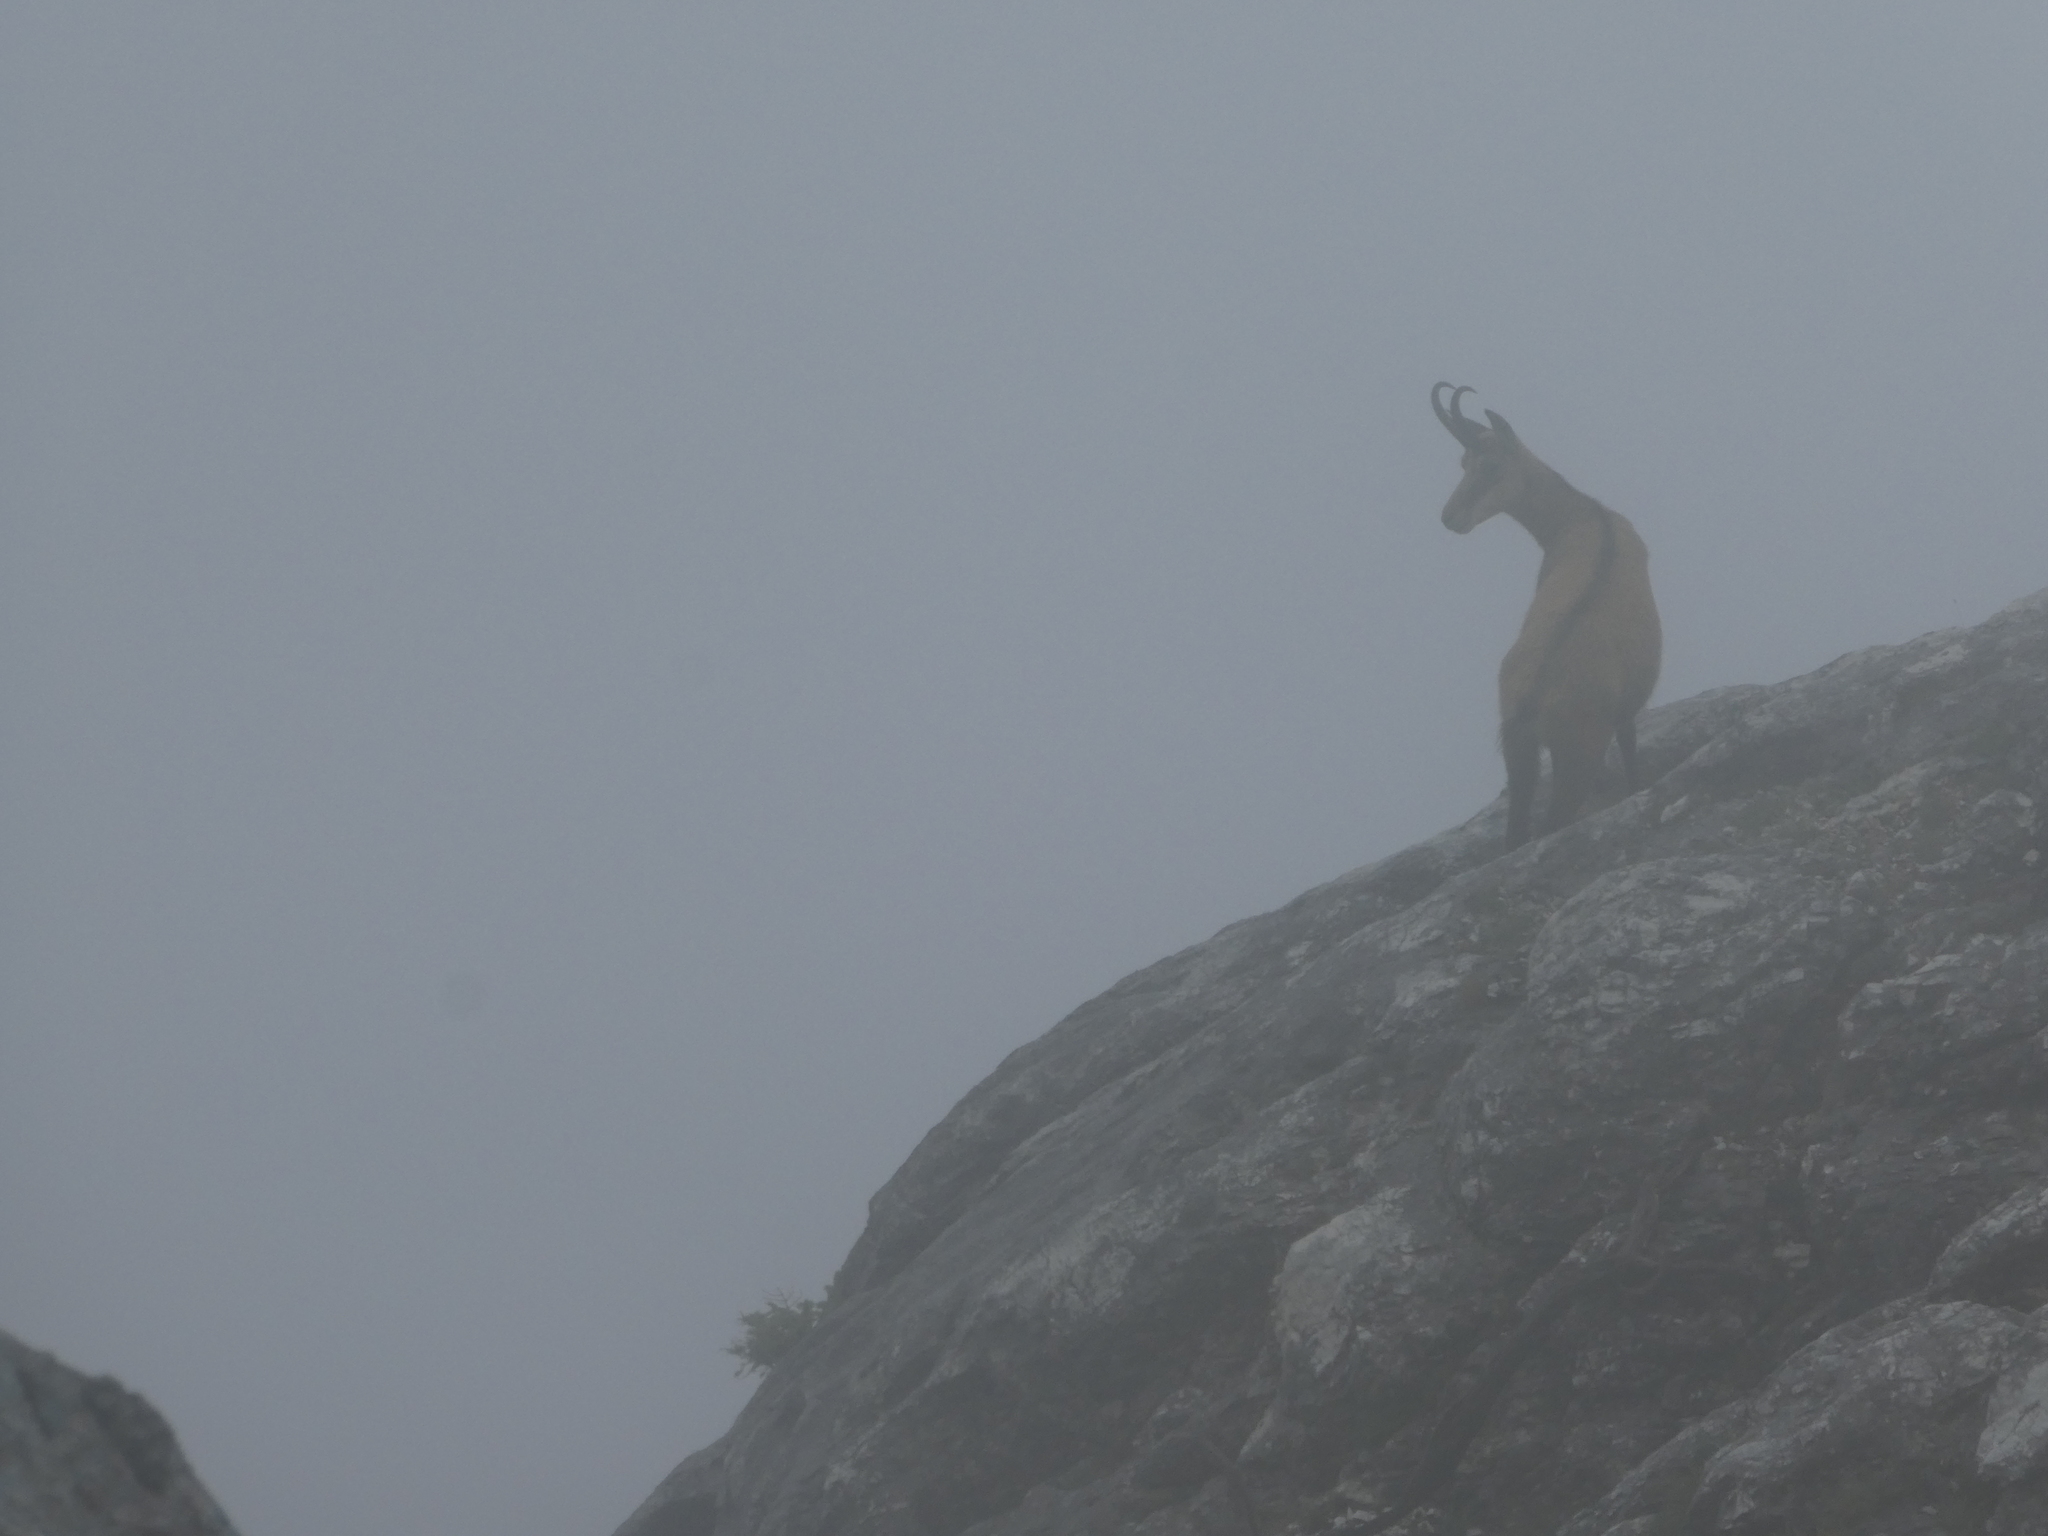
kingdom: Animalia
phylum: Chordata
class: Mammalia
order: Artiodactyla
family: Bovidae
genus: Rupicapra
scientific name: Rupicapra rupicapra
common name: Chamois
